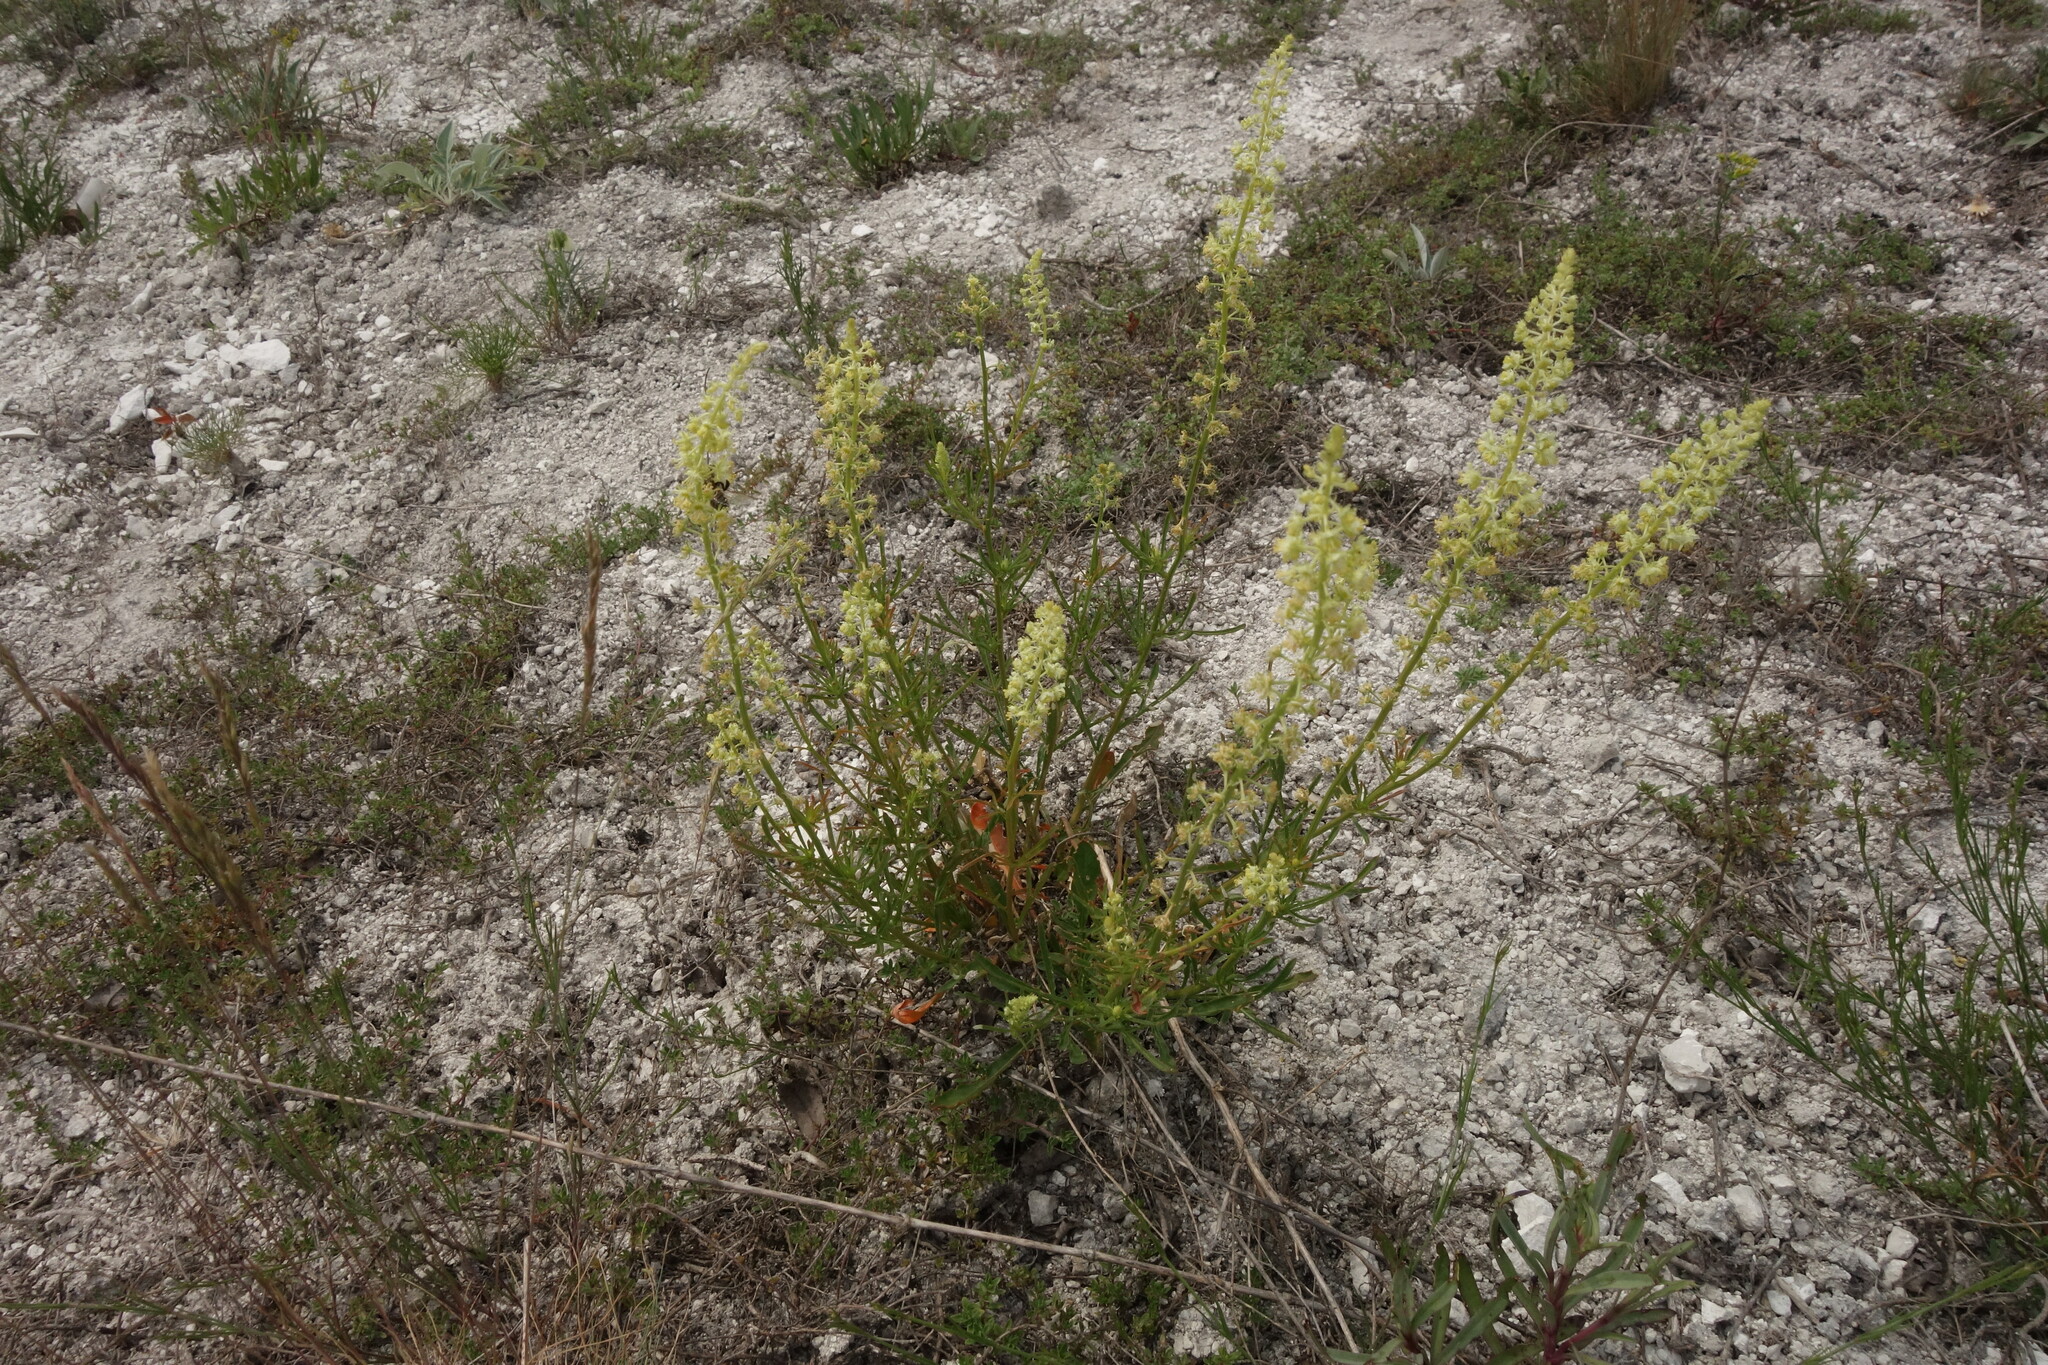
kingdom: Plantae
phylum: Tracheophyta
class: Magnoliopsida
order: Brassicales
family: Resedaceae
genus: Reseda
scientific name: Reseda lutea
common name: Wild mignonette
